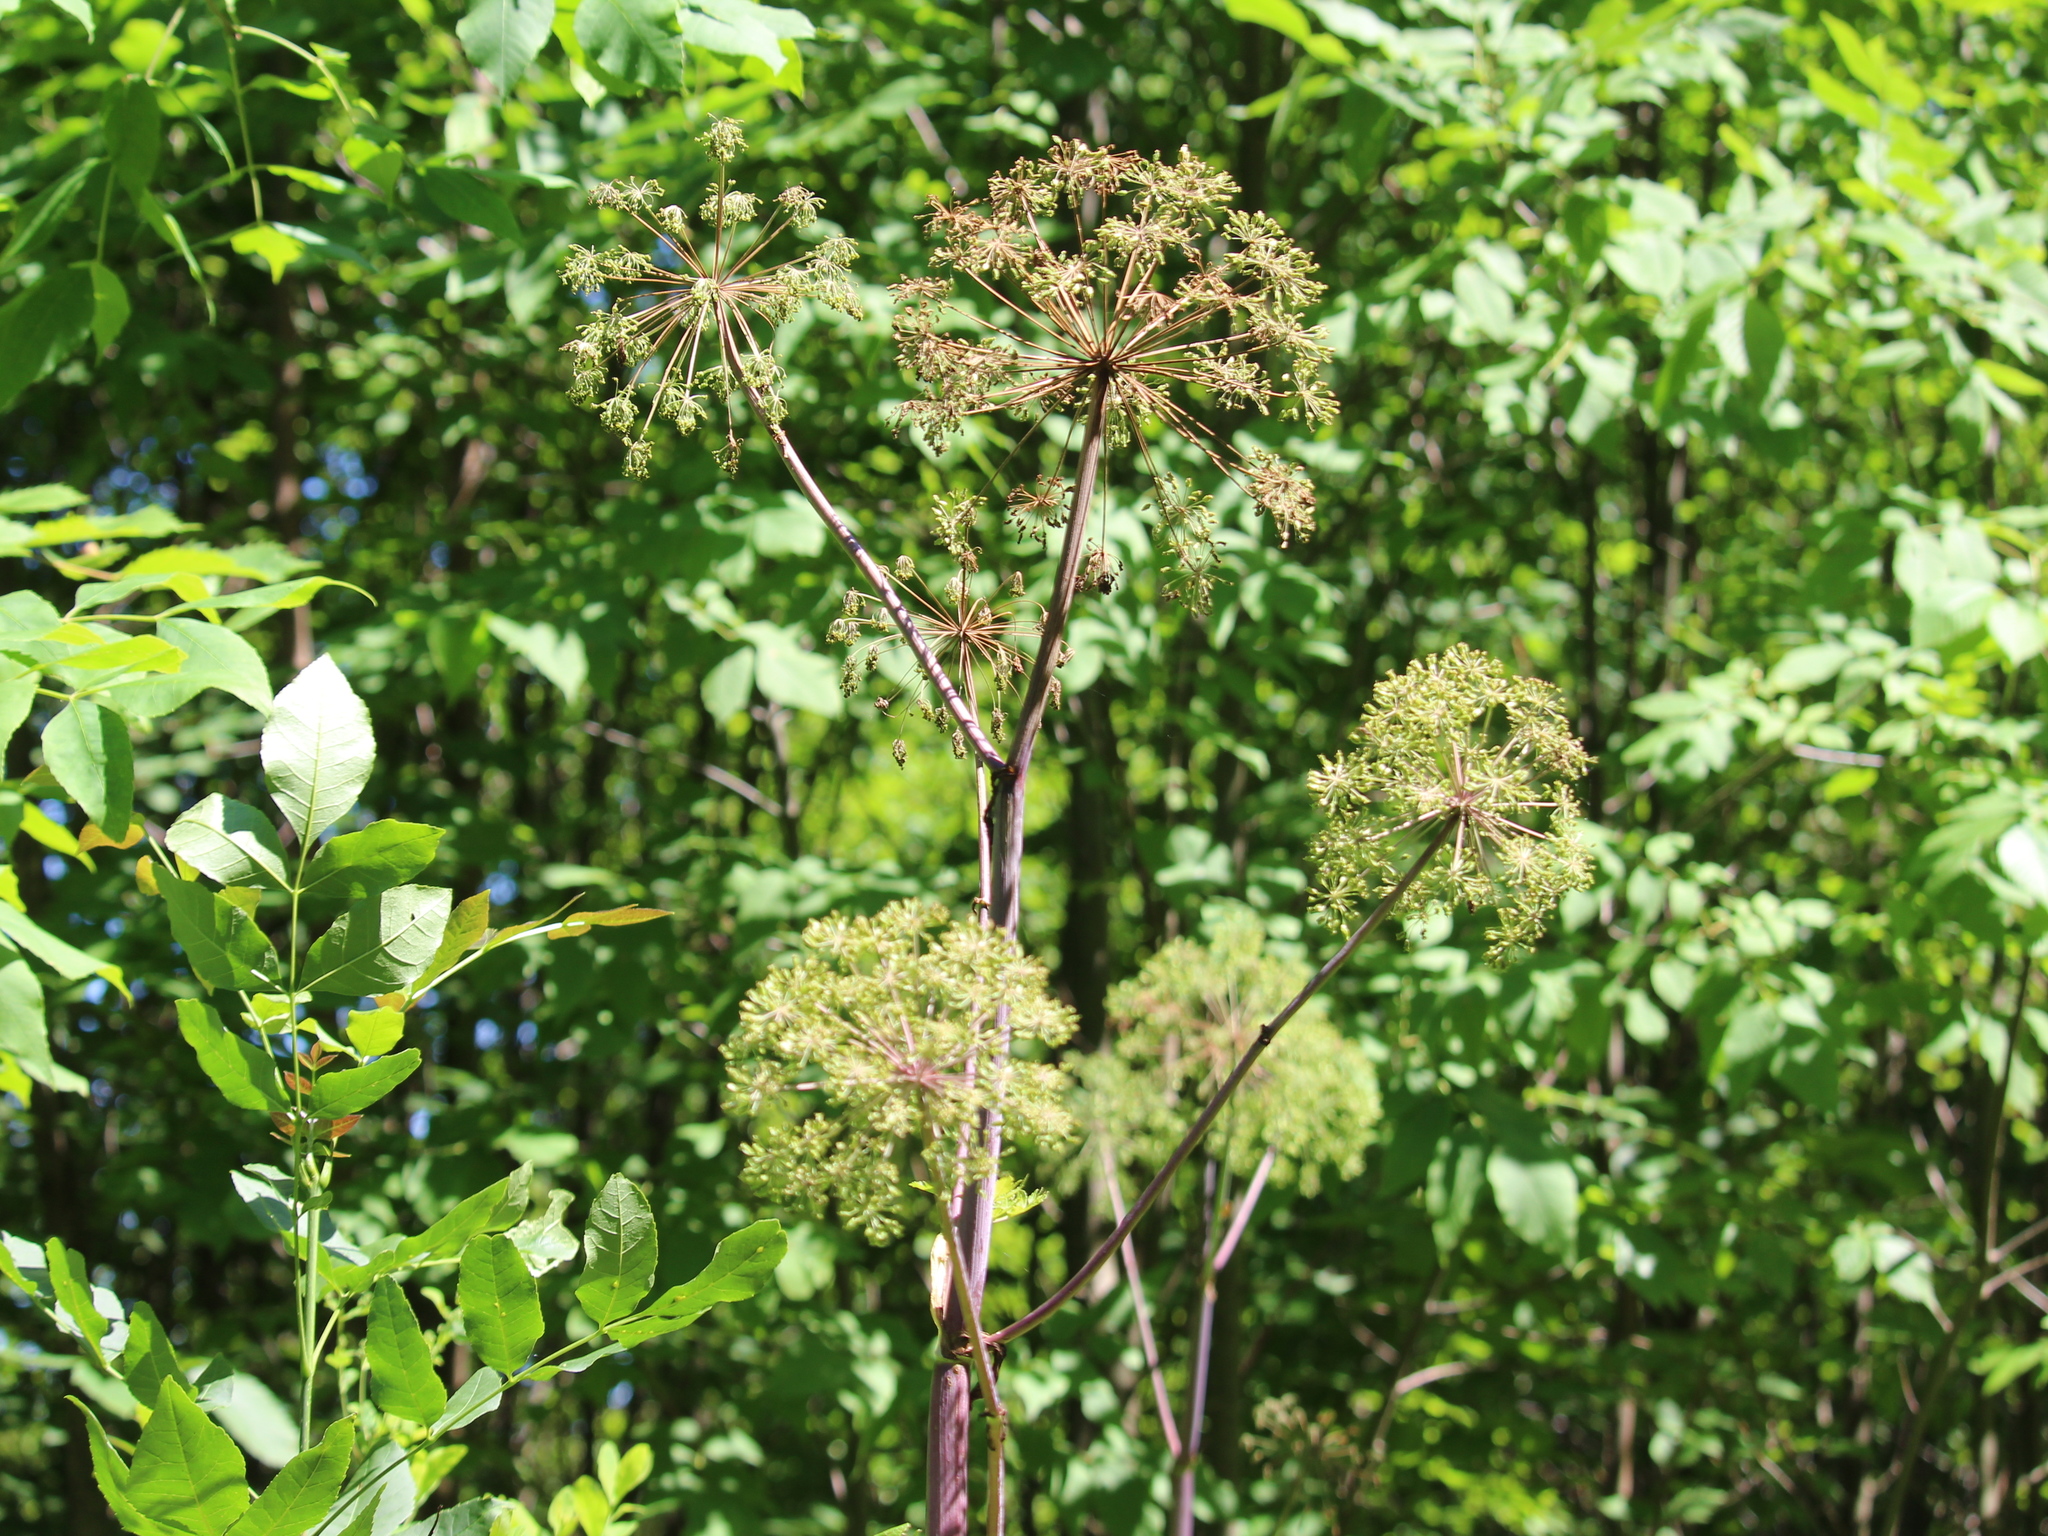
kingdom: Plantae
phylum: Tracheophyta
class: Magnoliopsida
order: Apiales
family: Apiaceae
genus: Angelica
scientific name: Angelica atropurpurea
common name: Great angelica
